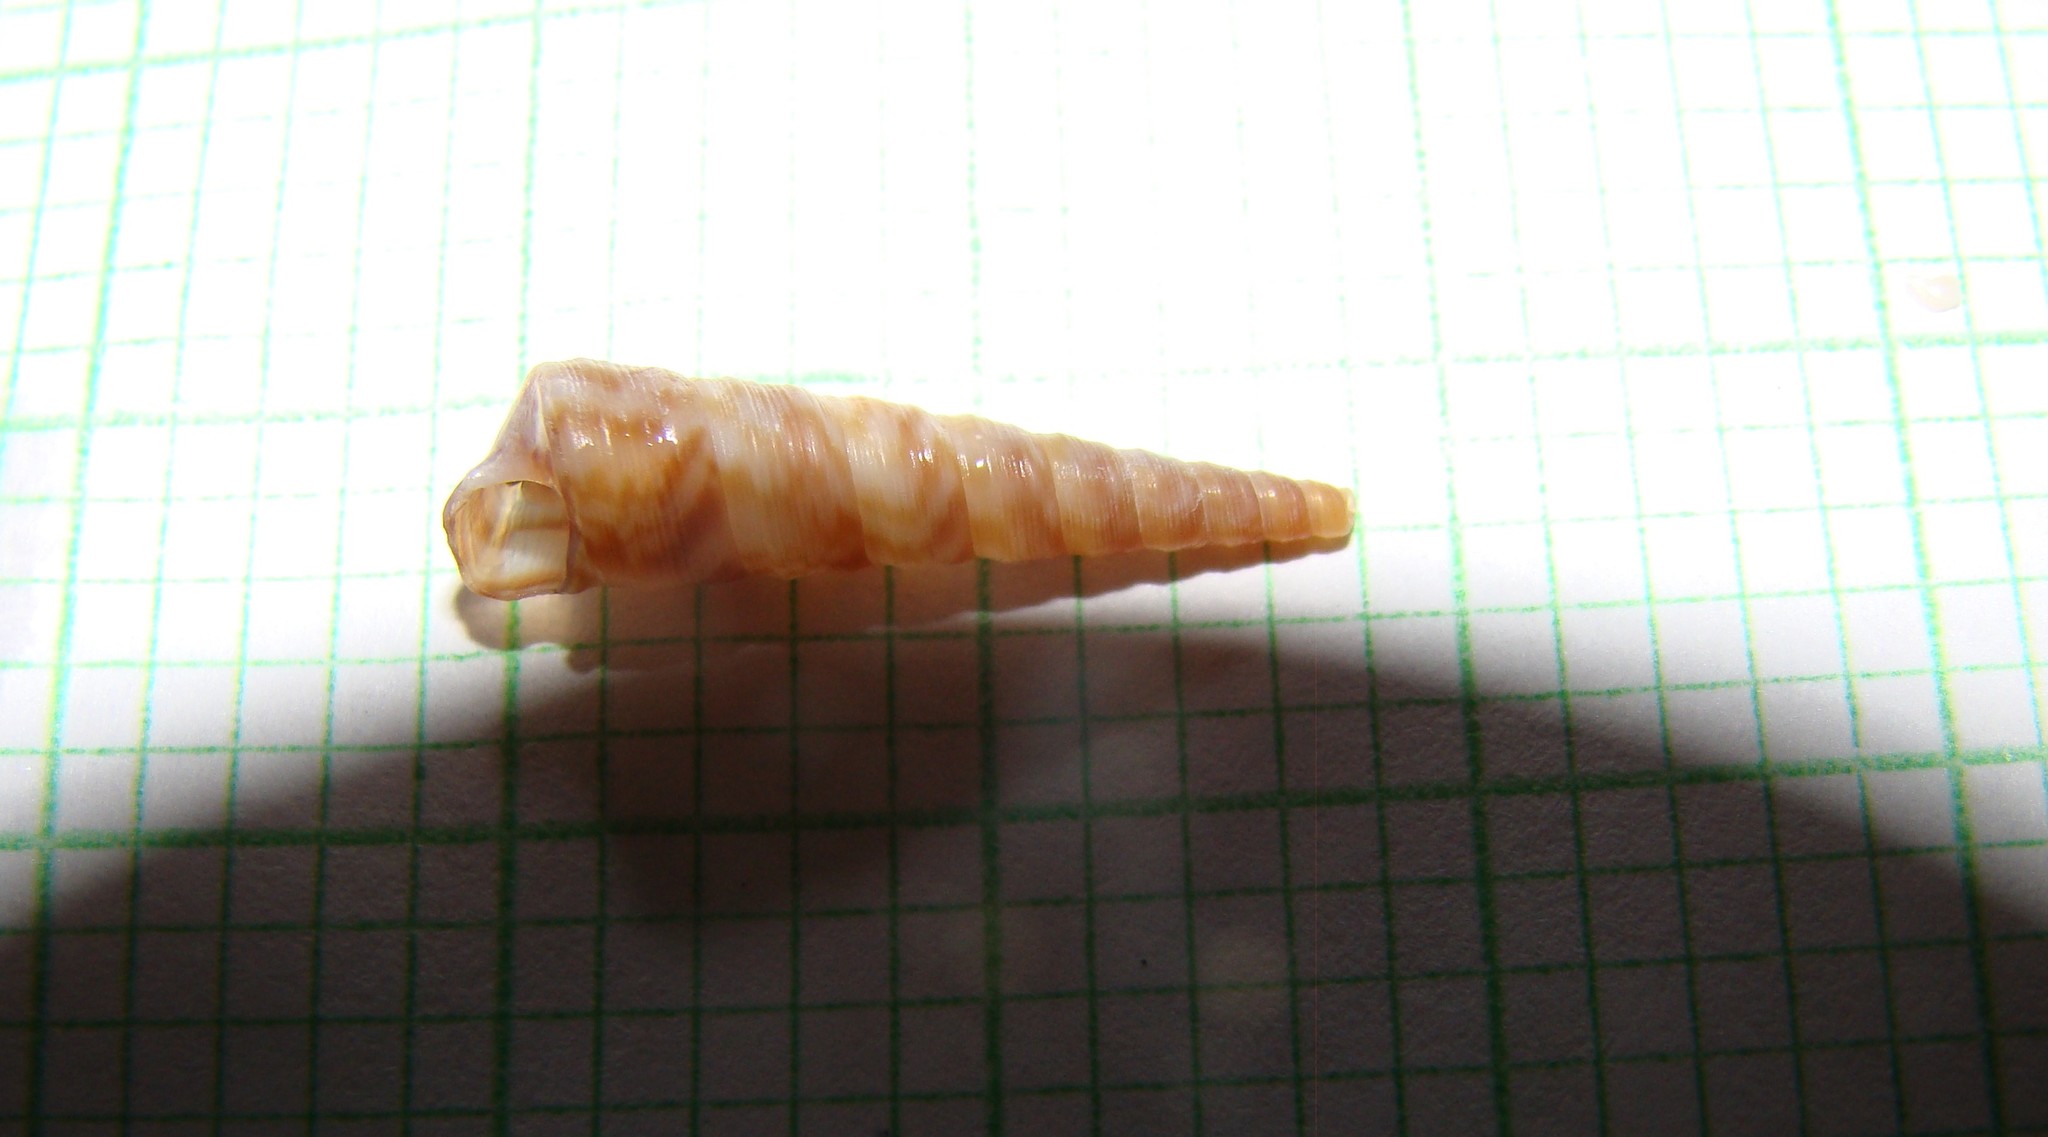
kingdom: Animalia
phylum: Mollusca
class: Gastropoda
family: Turritellidae
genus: Stiracolpus
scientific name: Stiracolpus pagoda
